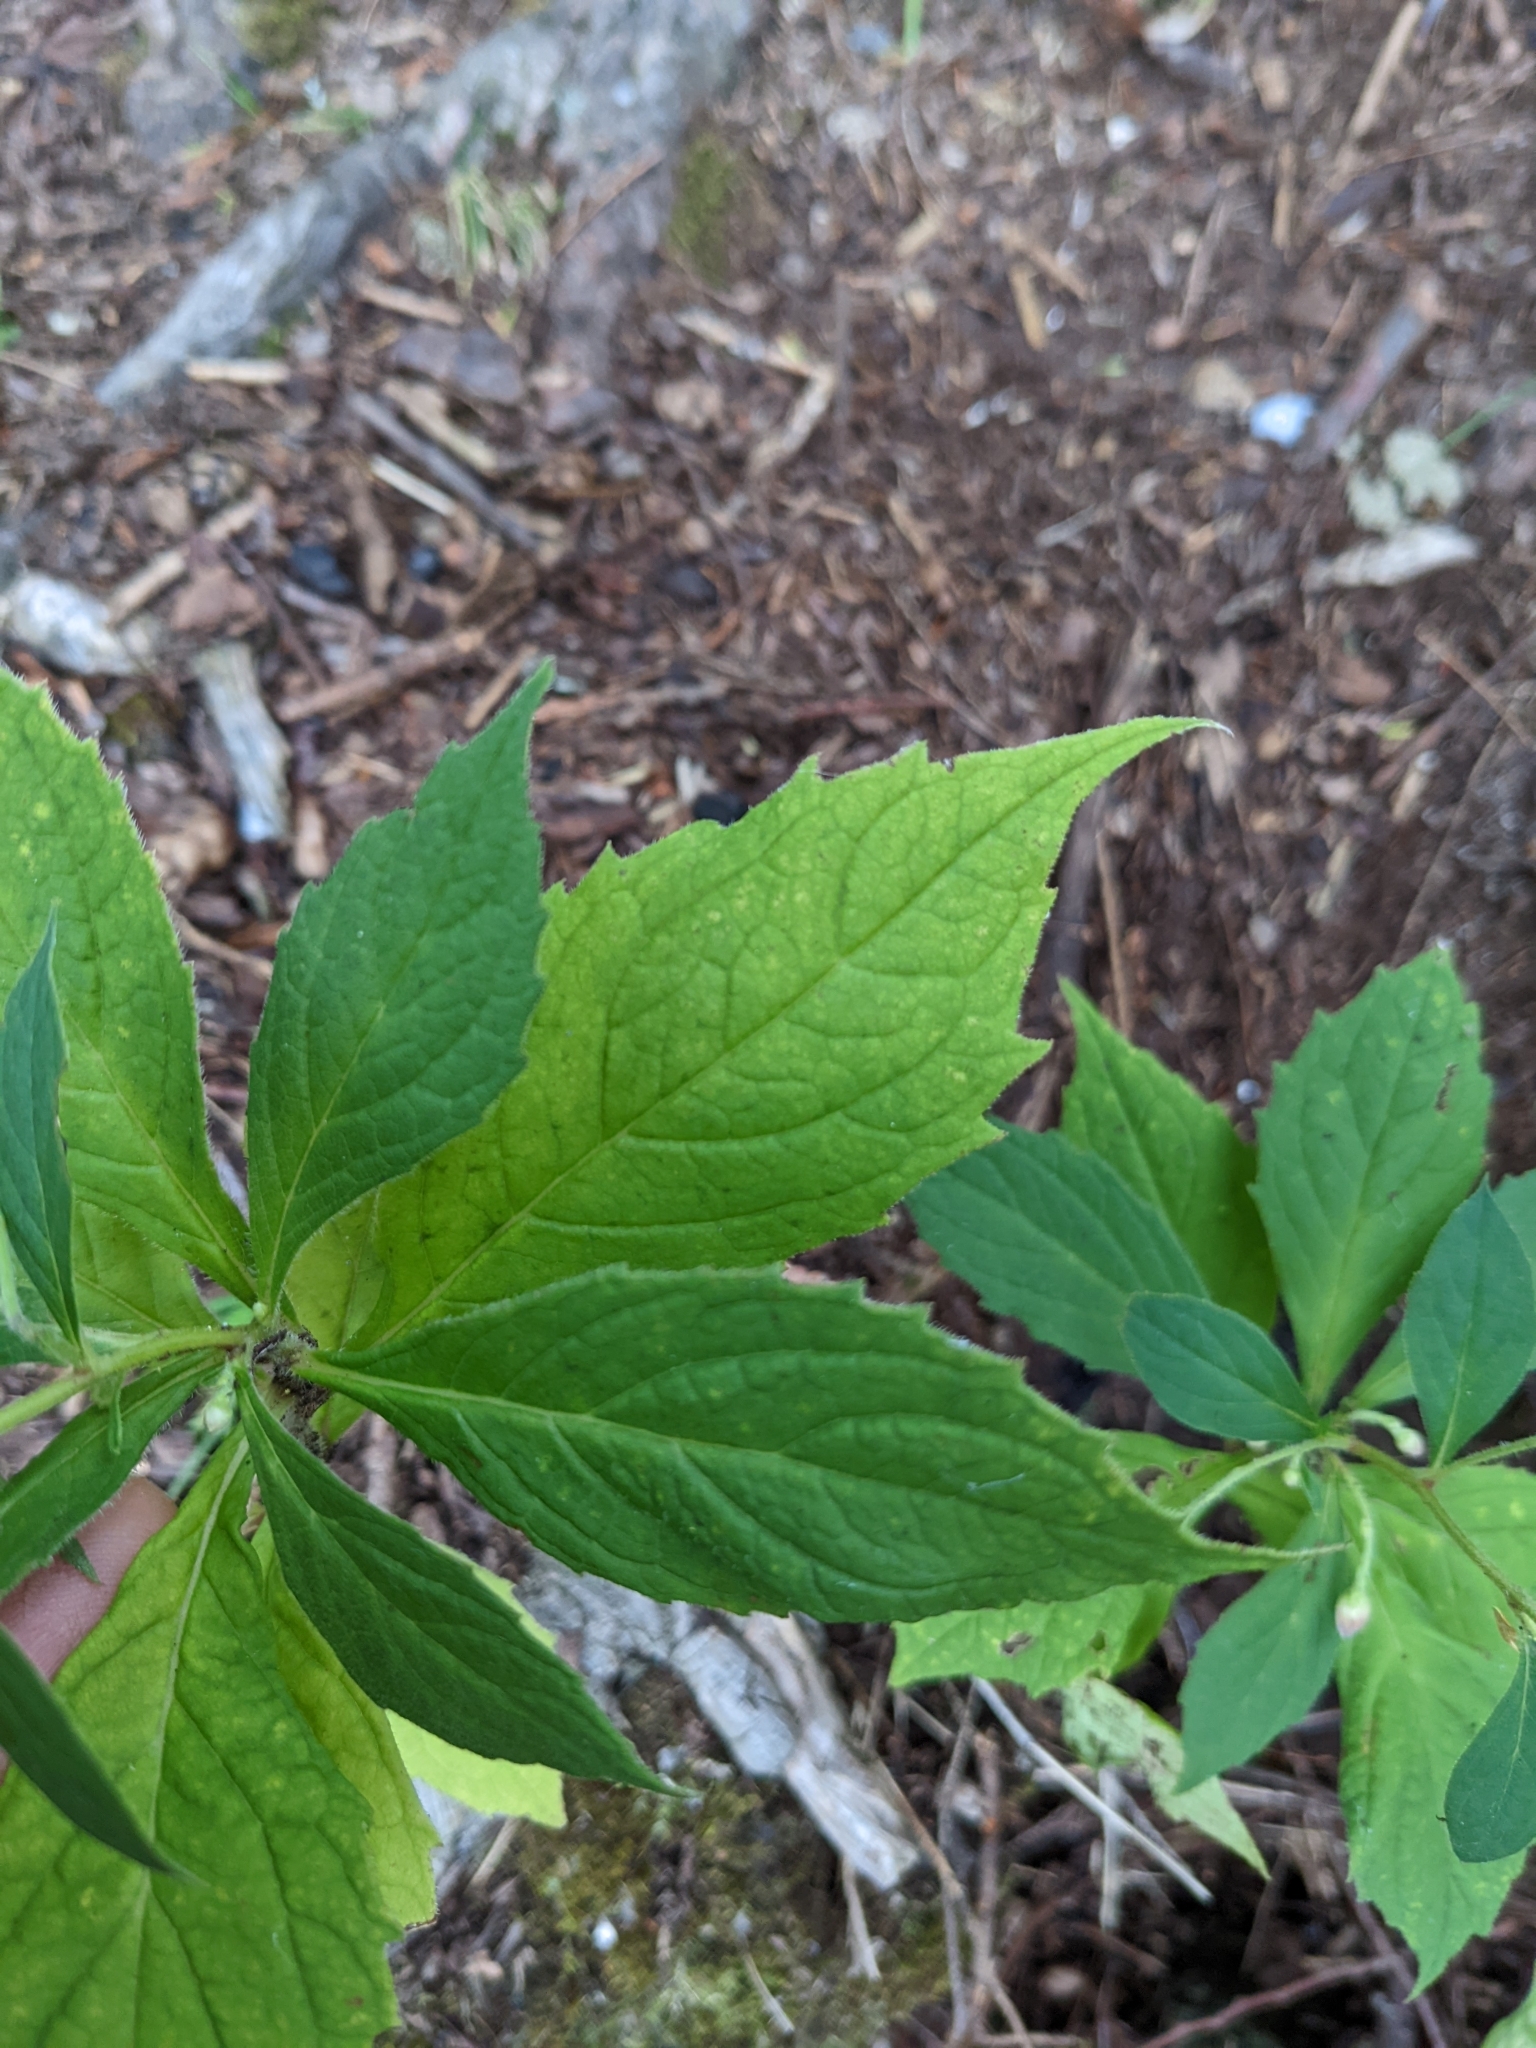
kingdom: Plantae
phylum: Tracheophyta
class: Magnoliopsida
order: Asterales
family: Asteraceae
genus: Oclemena
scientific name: Oclemena acuminata
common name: Mountain aster
